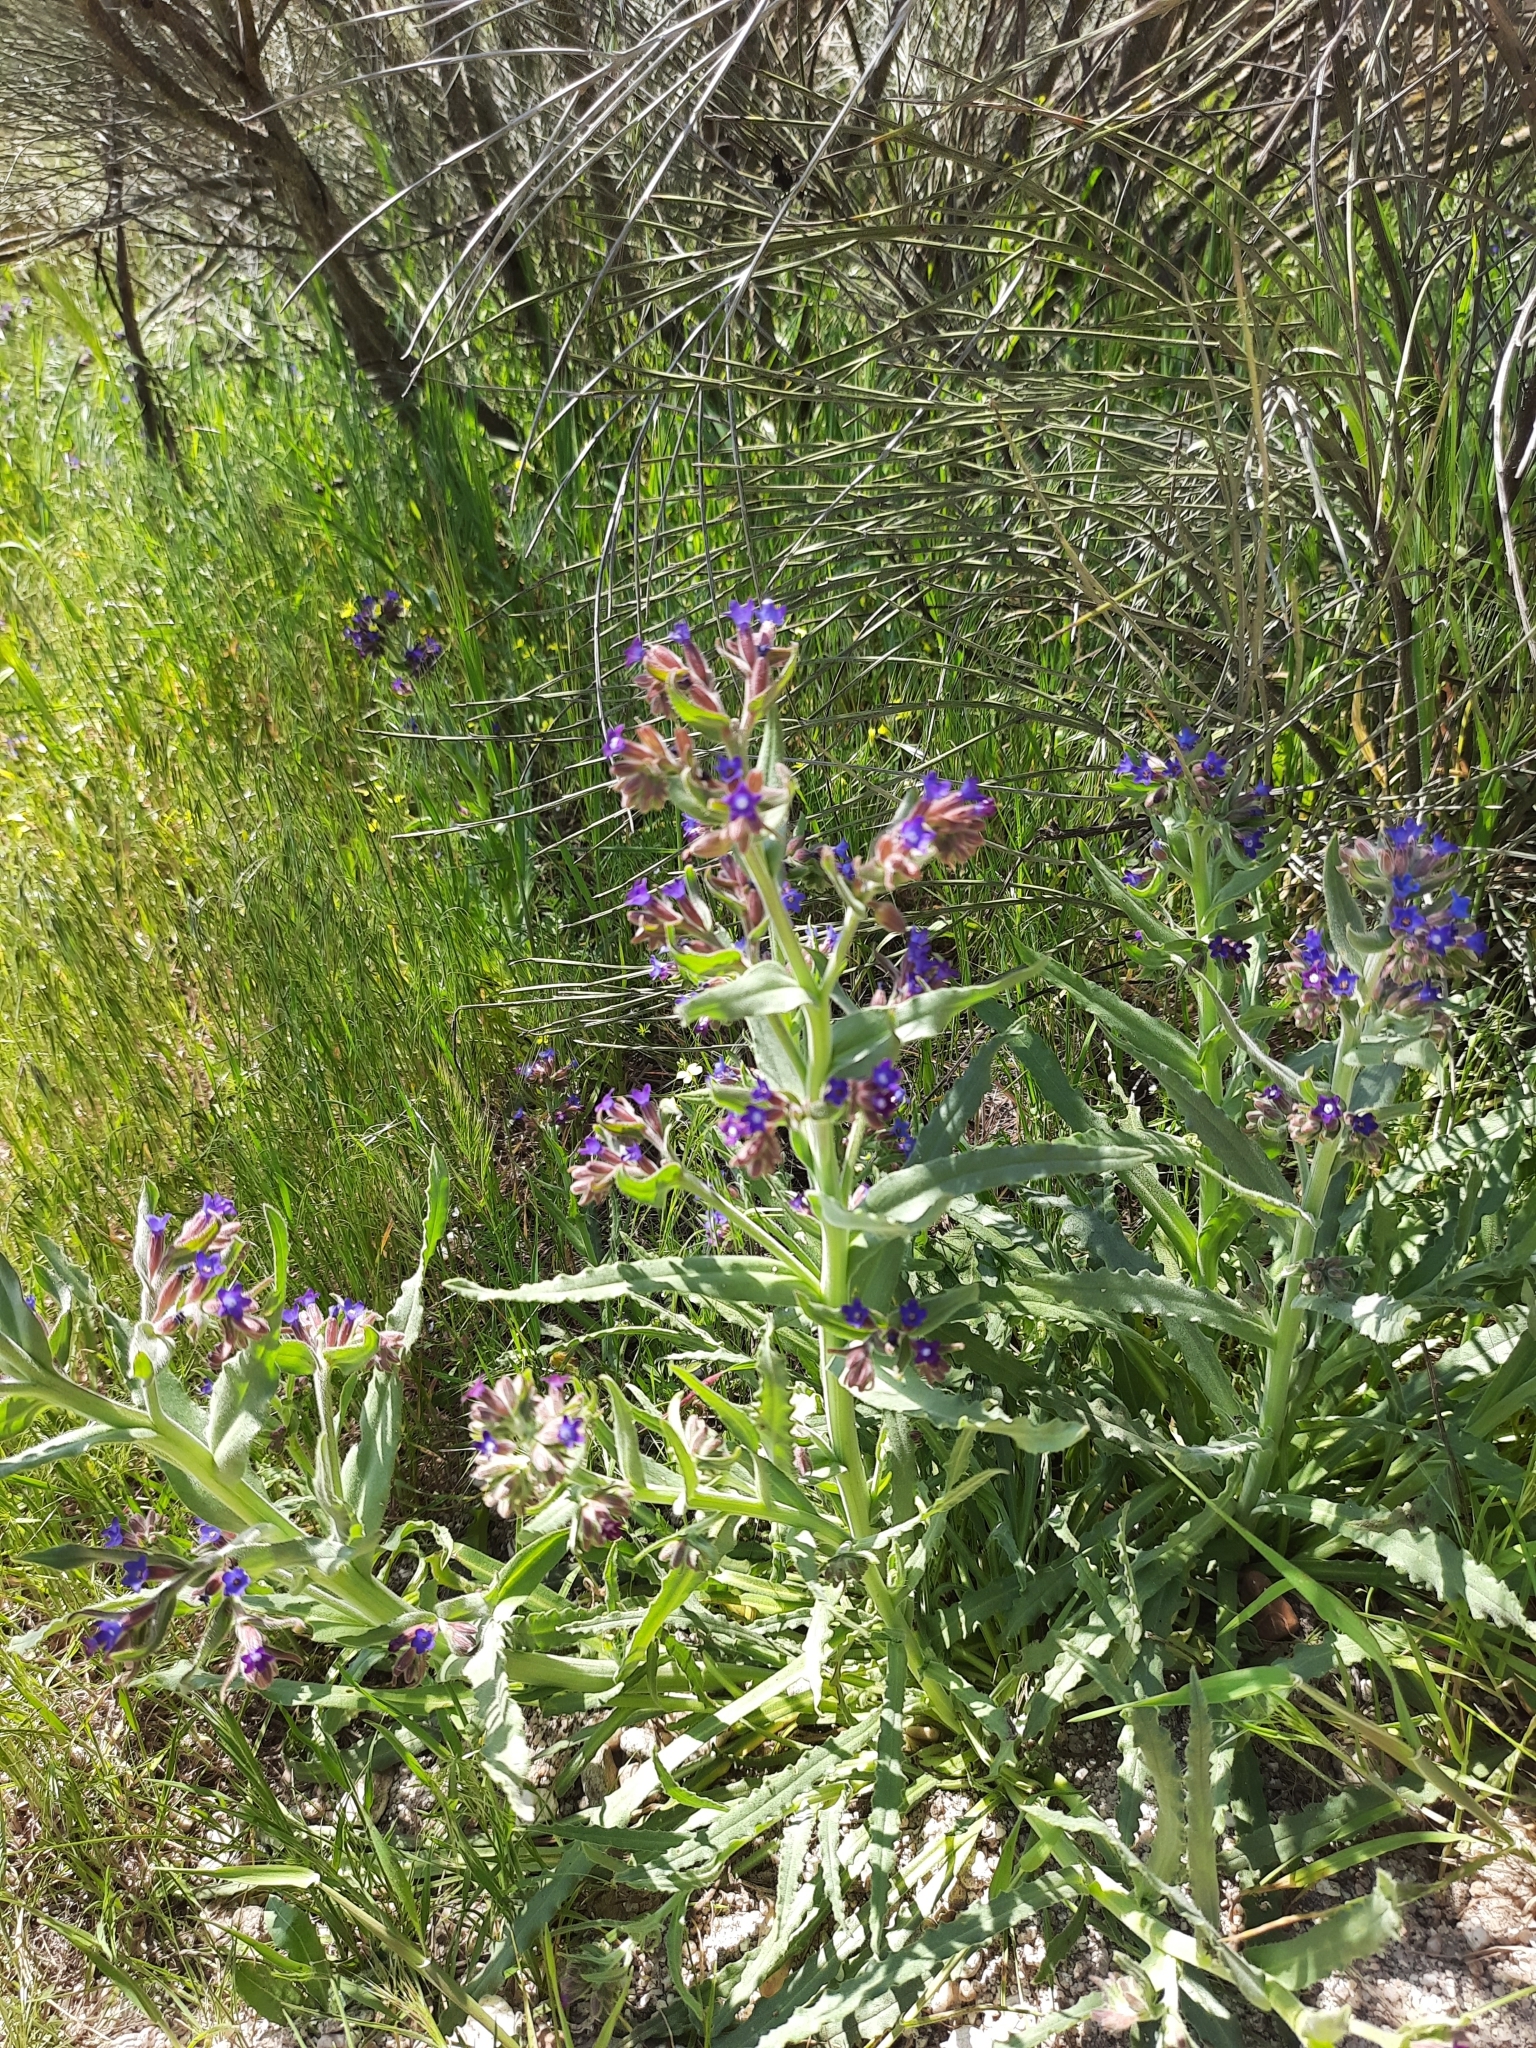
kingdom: Plantae
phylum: Tracheophyta
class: Magnoliopsida
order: Boraginales
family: Boraginaceae
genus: Anchusa
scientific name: Anchusa undulata
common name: Undulate alkanet
